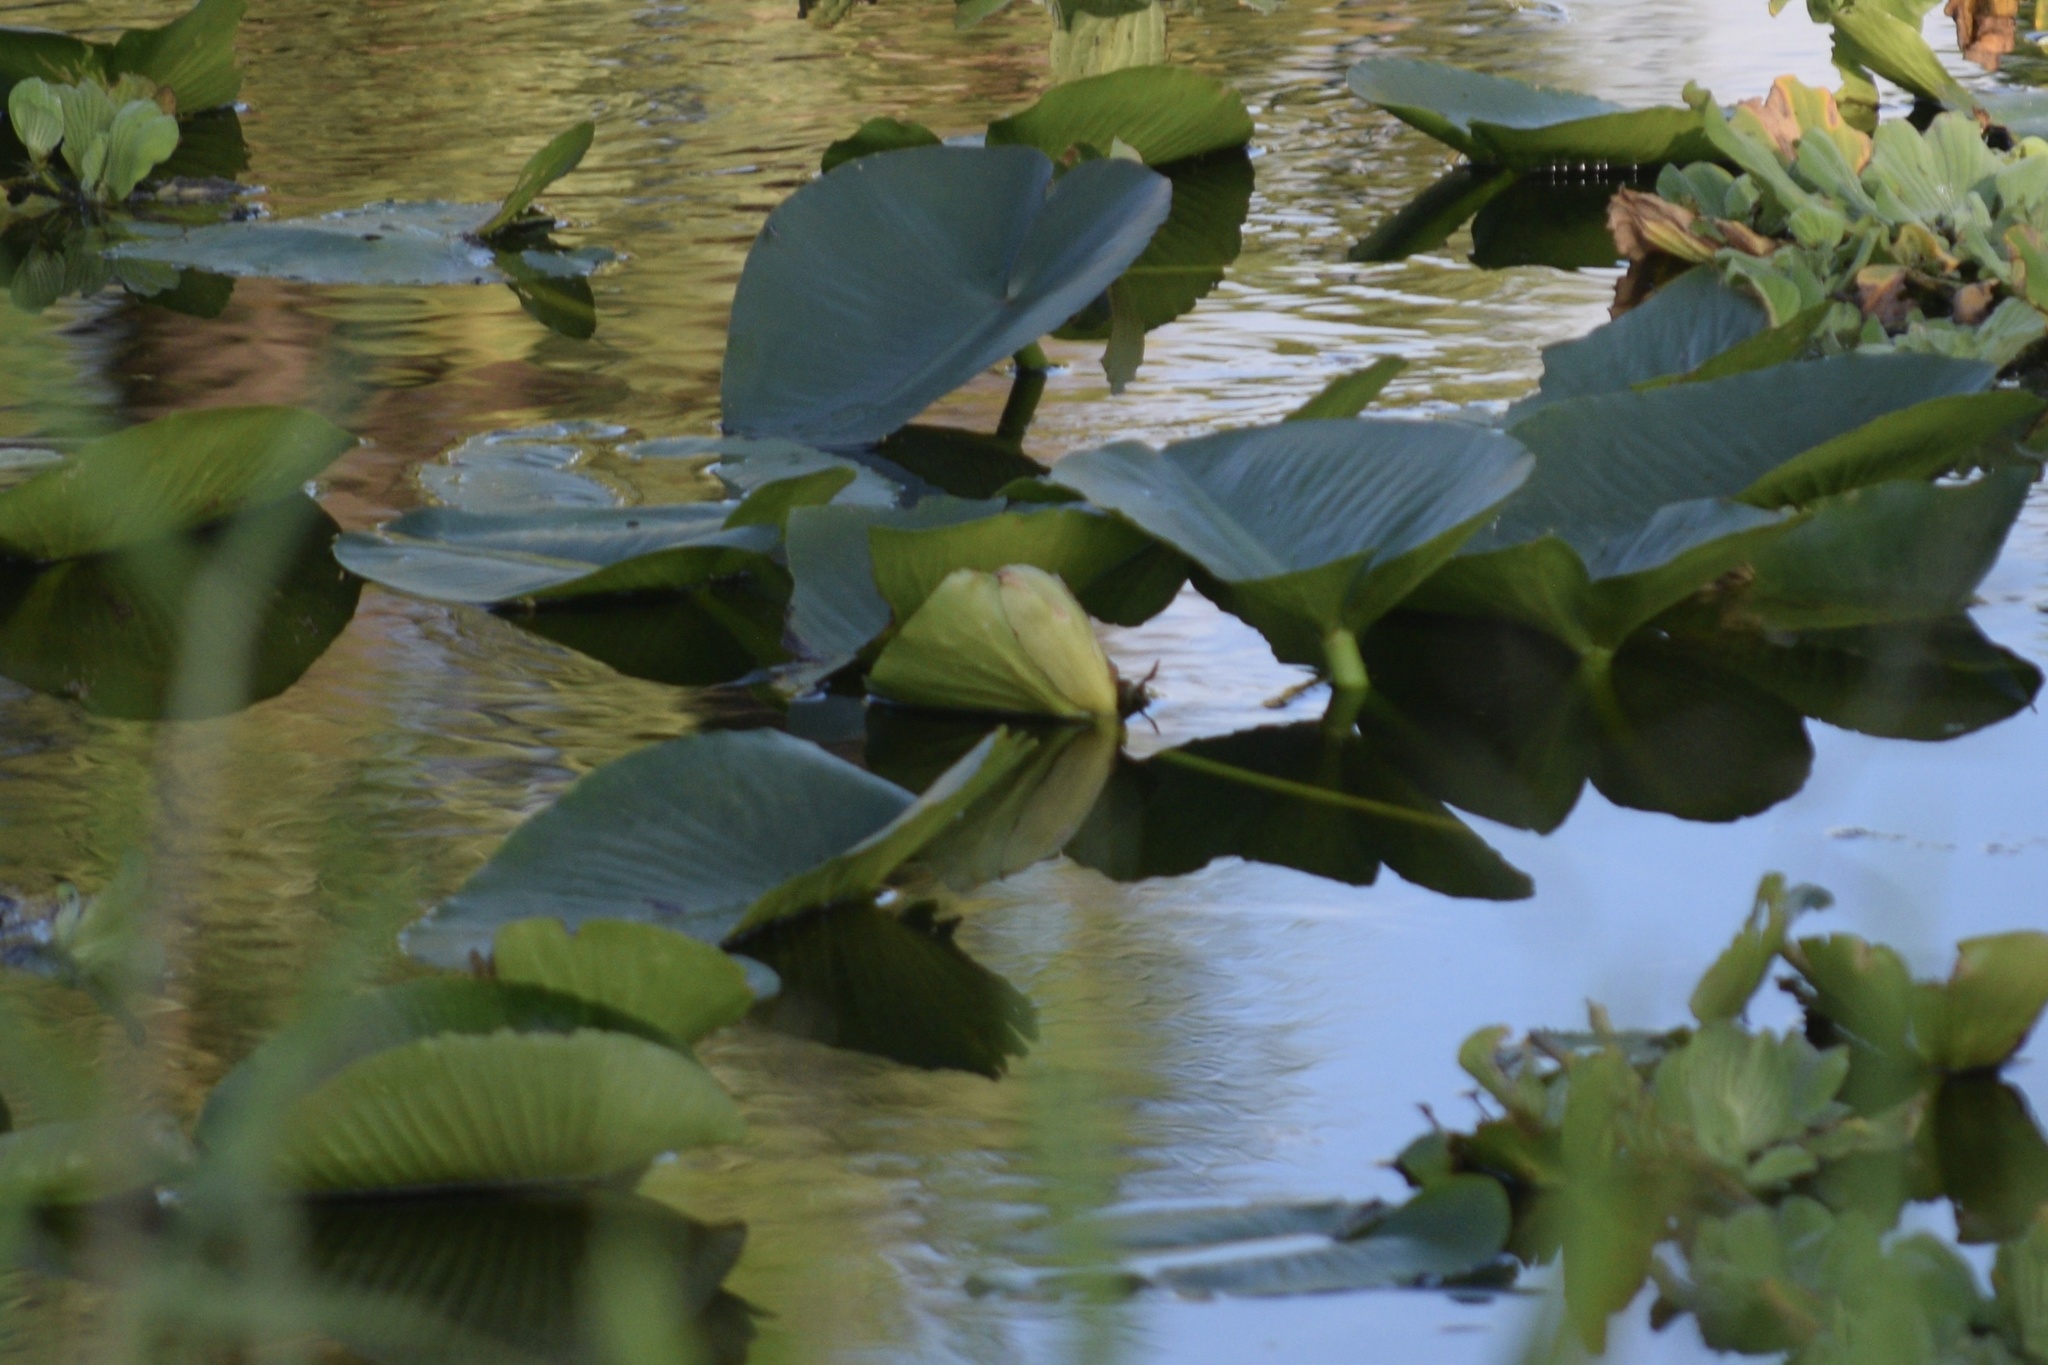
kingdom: Plantae
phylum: Tracheophyta
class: Magnoliopsida
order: Nymphaeales
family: Nymphaeaceae
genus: Nuphar
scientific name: Nuphar advena
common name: Spatter-dock
